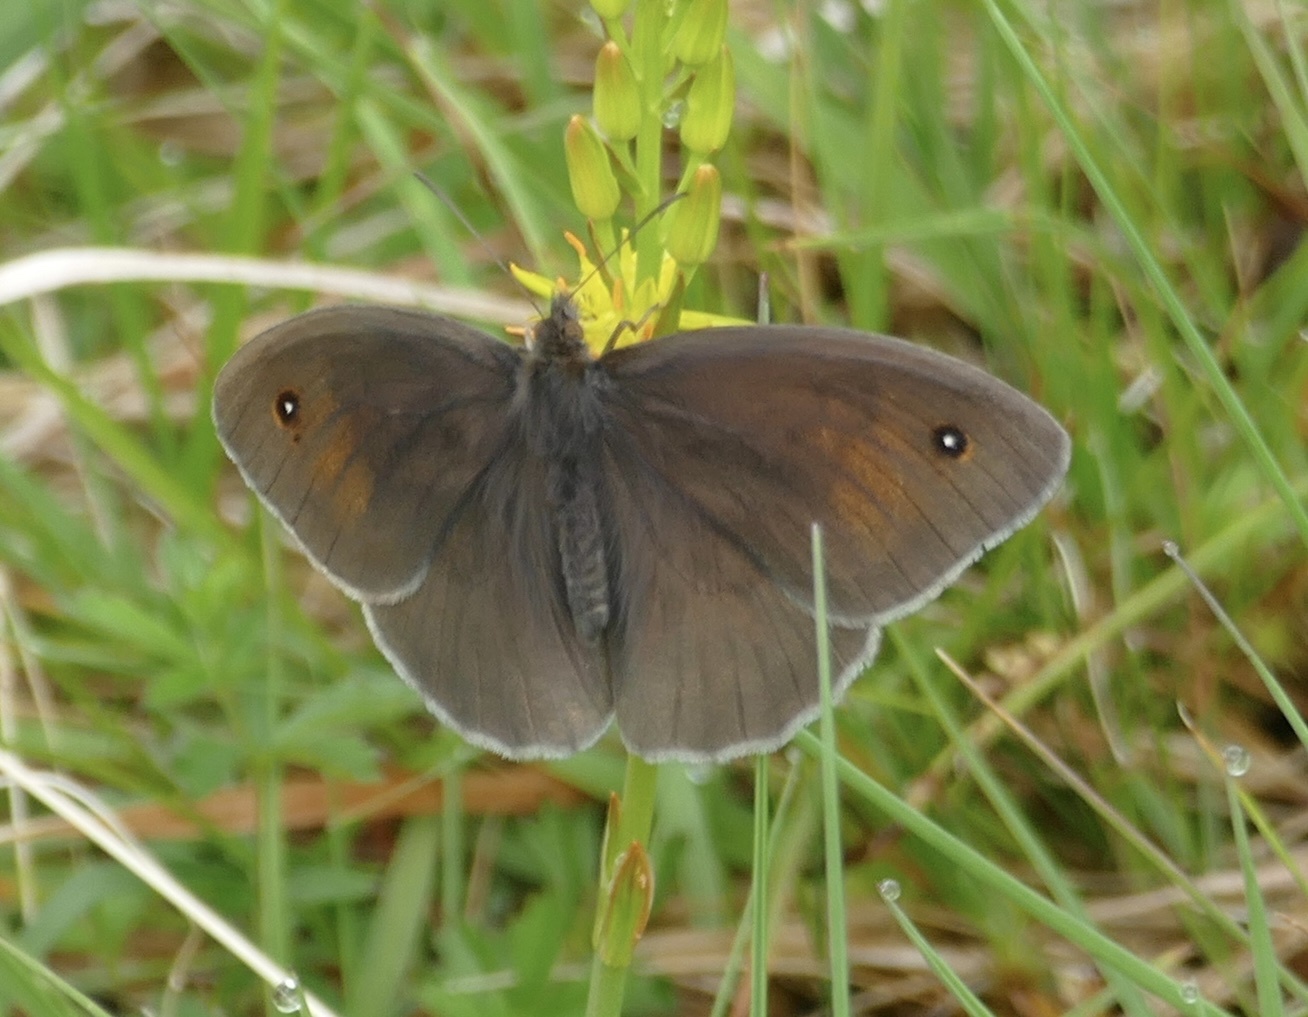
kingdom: Animalia
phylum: Arthropoda
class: Insecta
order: Lepidoptera
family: Nymphalidae
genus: Maniola
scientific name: Maniola jurtina
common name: Meadow brown
